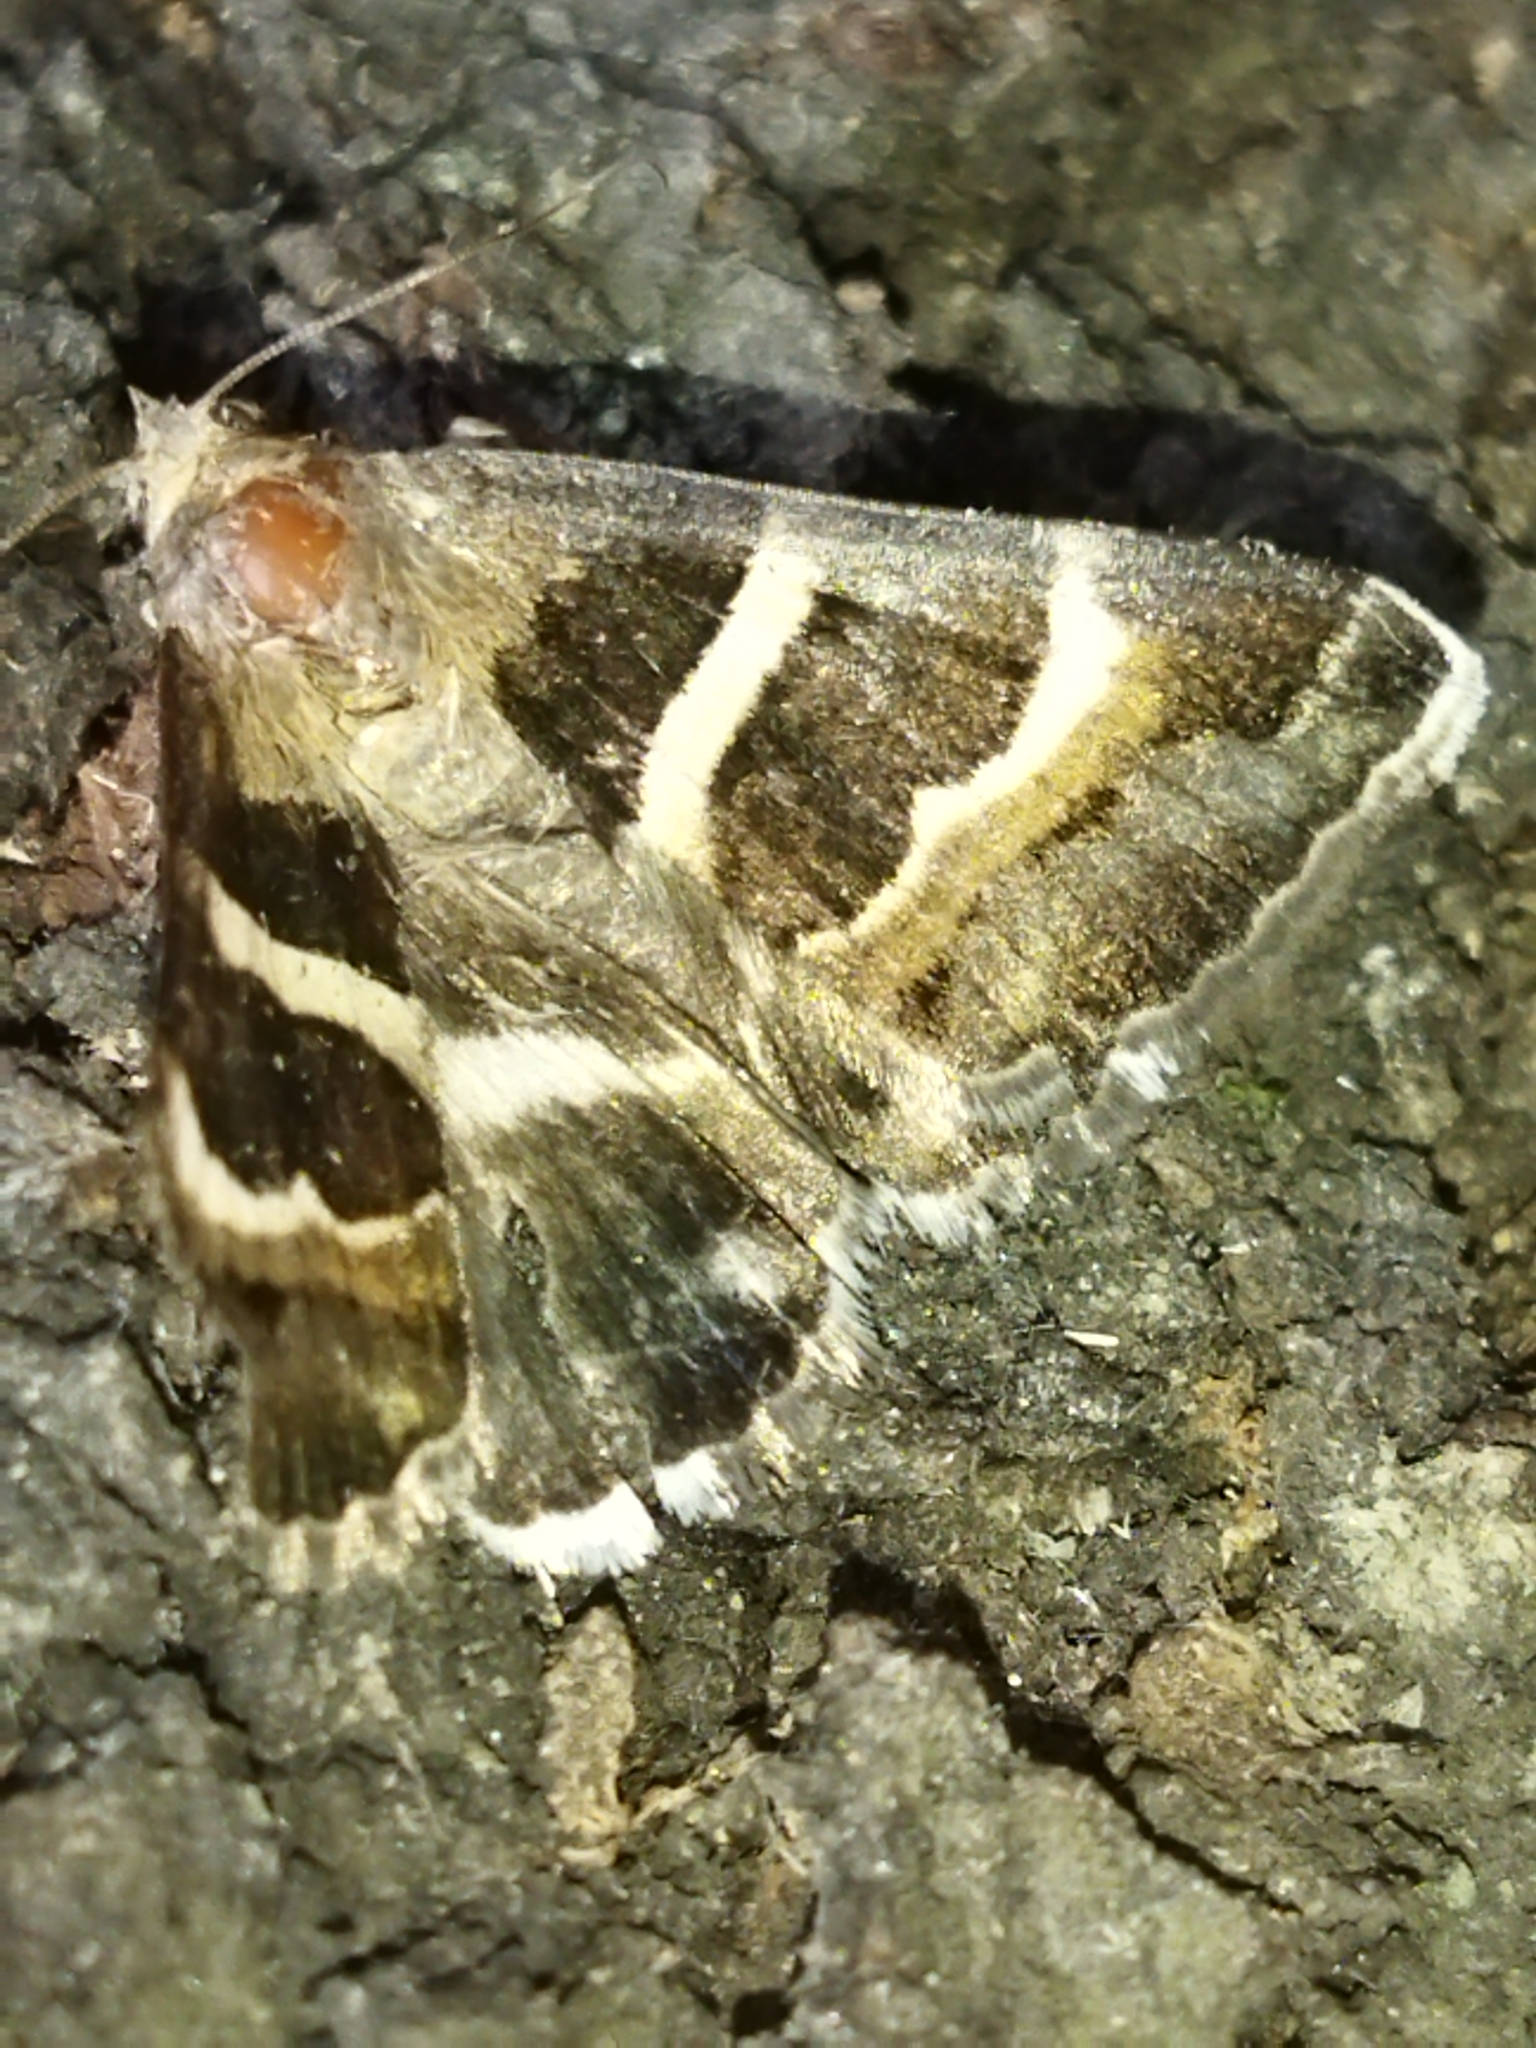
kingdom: Animalia
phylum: Arthropoda
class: Insecta
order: Lepidoptera
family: Erebidae
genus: Grammodes
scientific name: Grammodes stolida
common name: Geometrician
